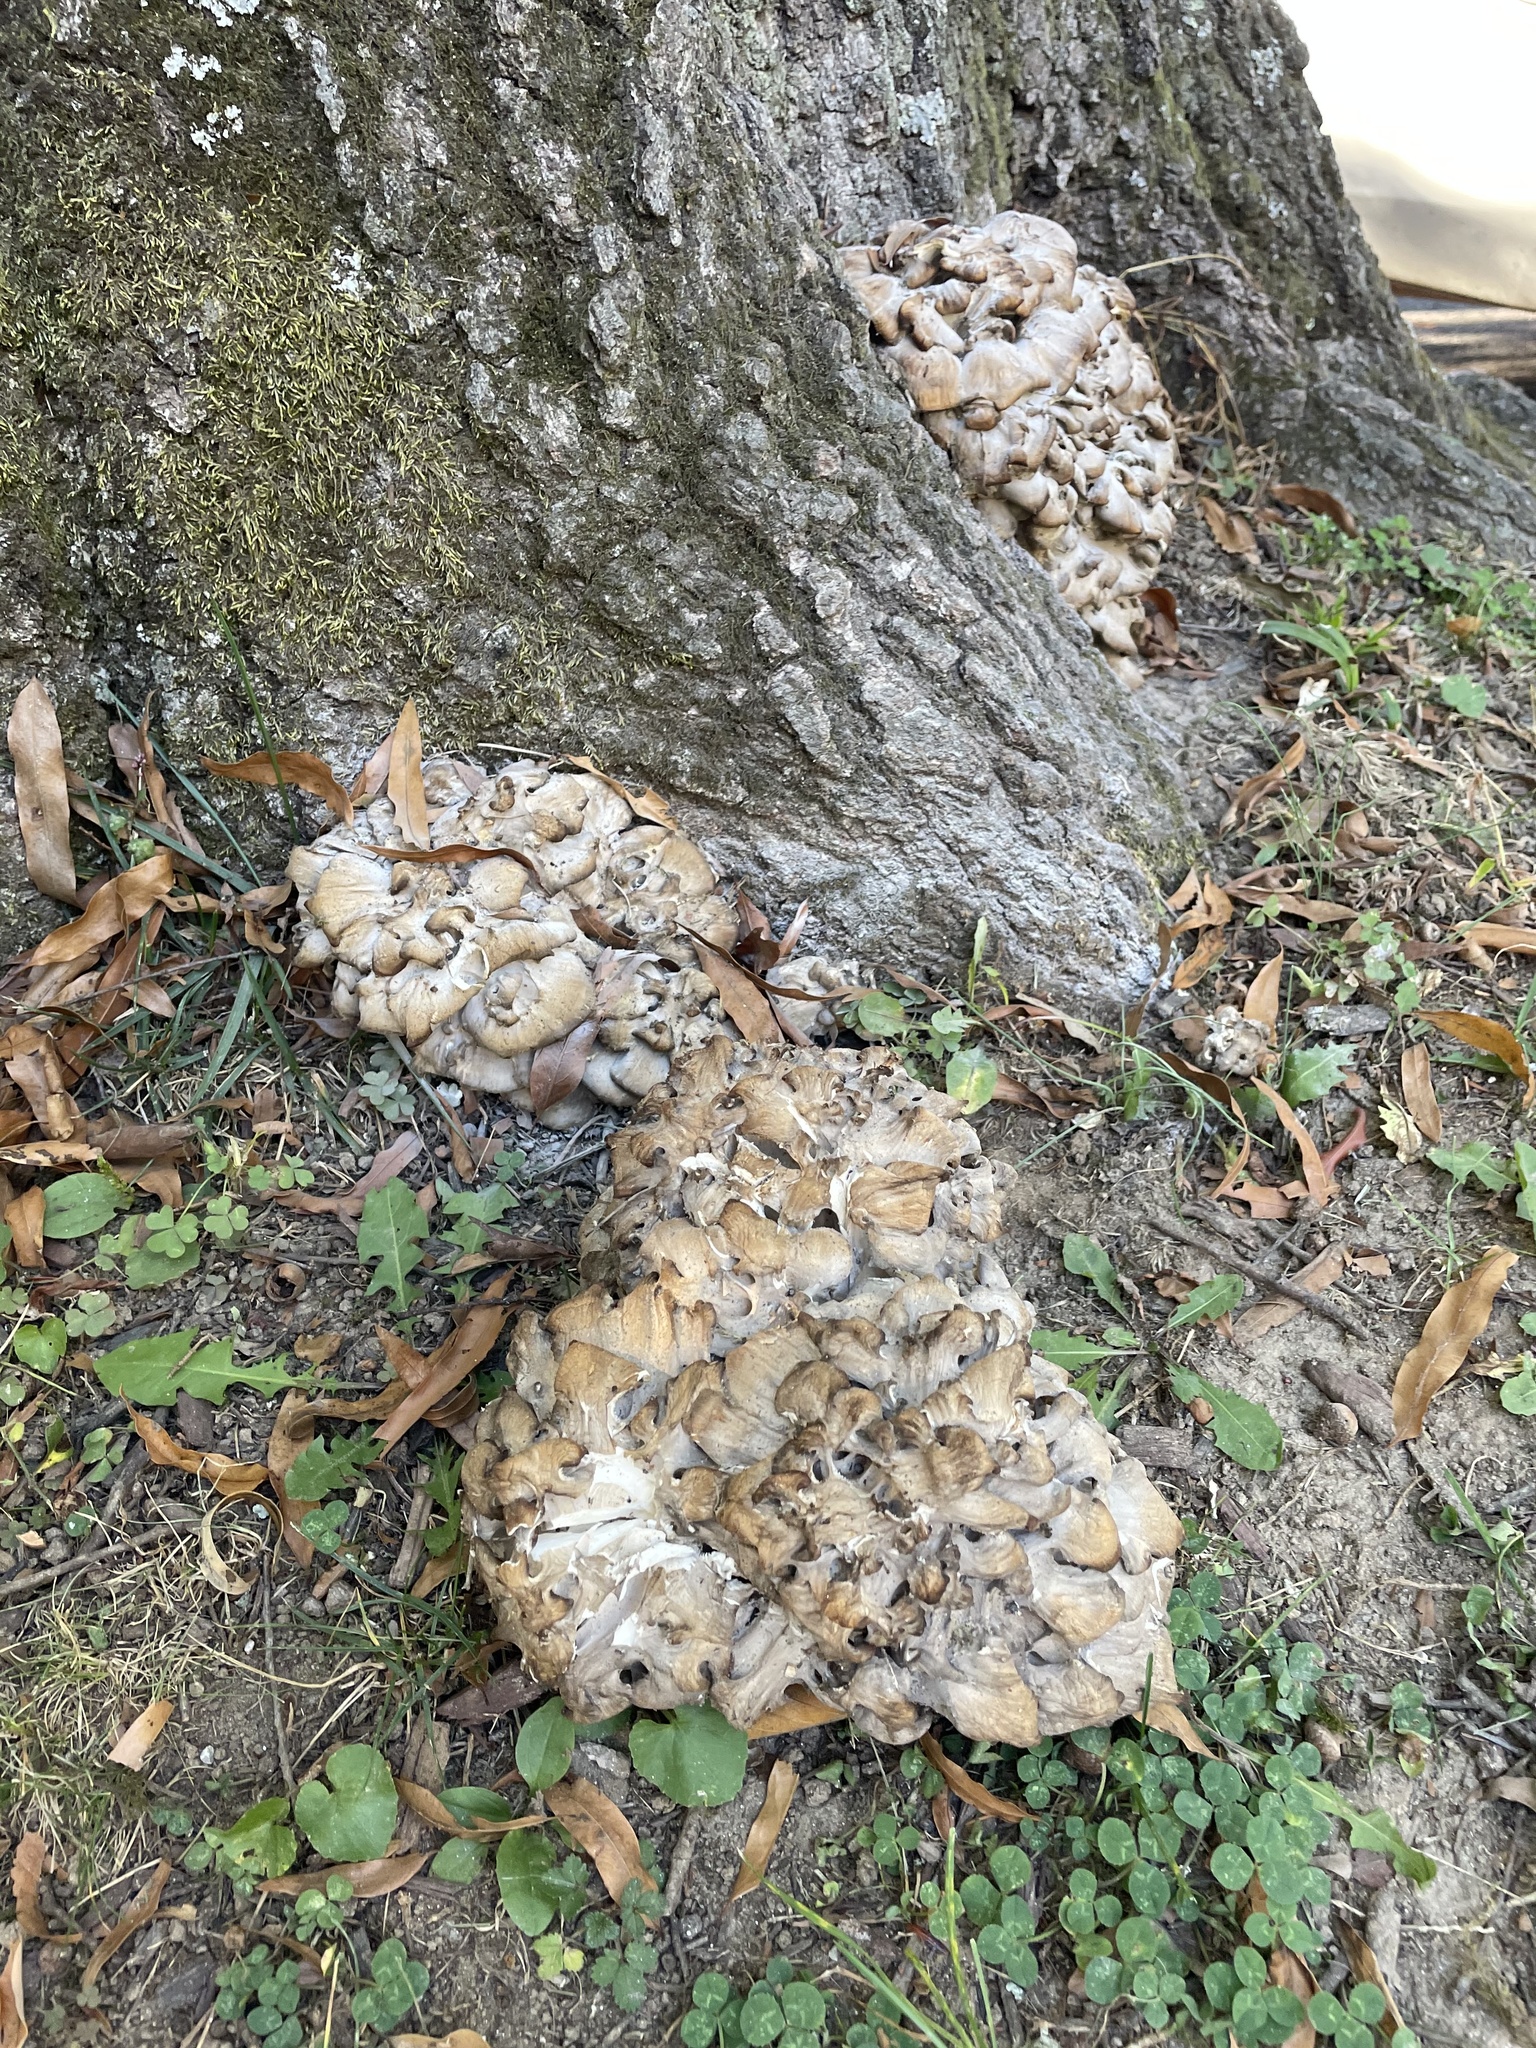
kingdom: Fungi
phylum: Basidiomycota
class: Agaricomycetes
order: Polyporales
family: Grifolaceae
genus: Grifola
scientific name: Grifola frondosa
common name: Hen of the woods
